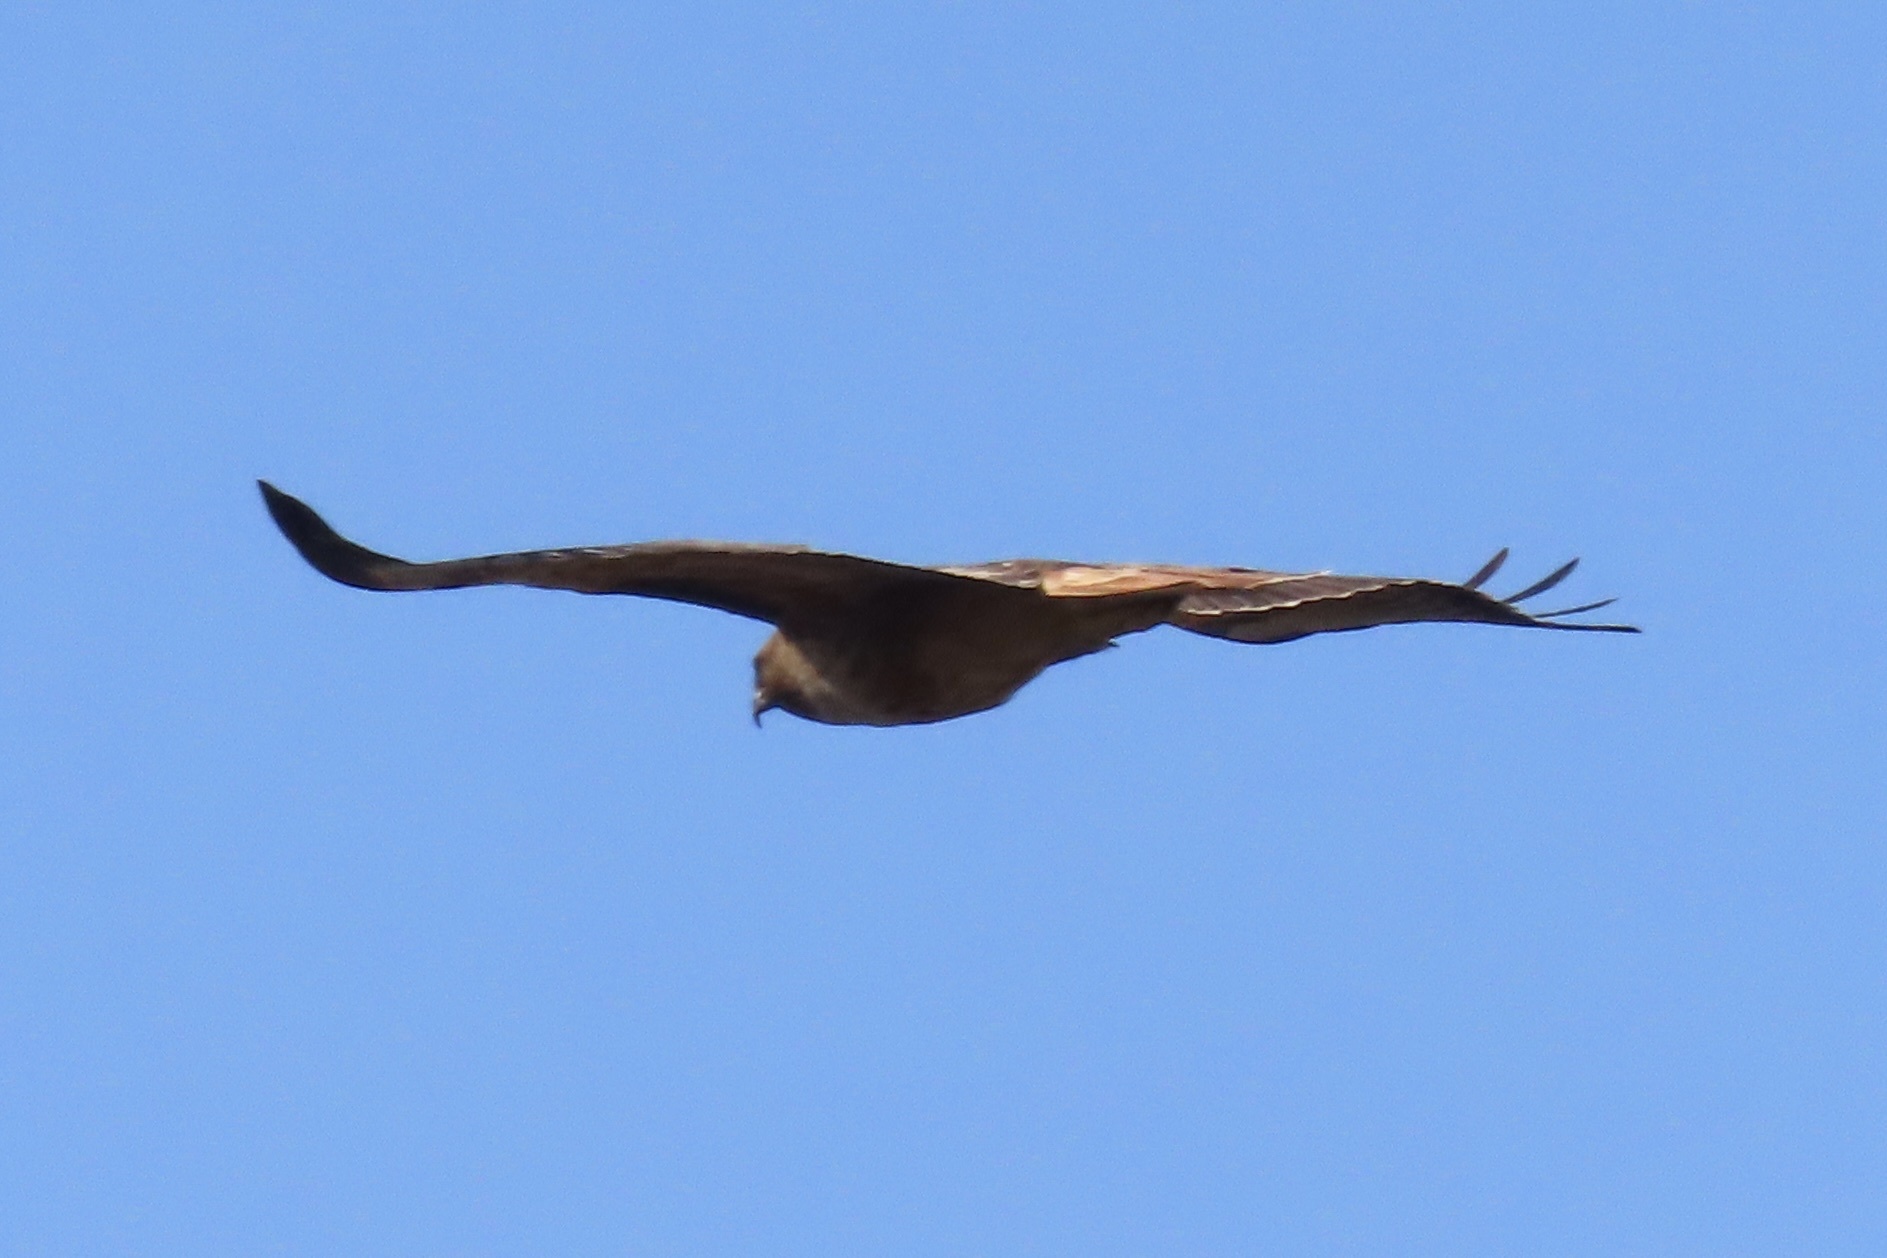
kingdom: Animalia
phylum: Chordata
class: Aves
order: Accipitriformes
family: Accipitridae
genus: Buteo
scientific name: Buteo jamaicensis
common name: Red-tailed hawk
